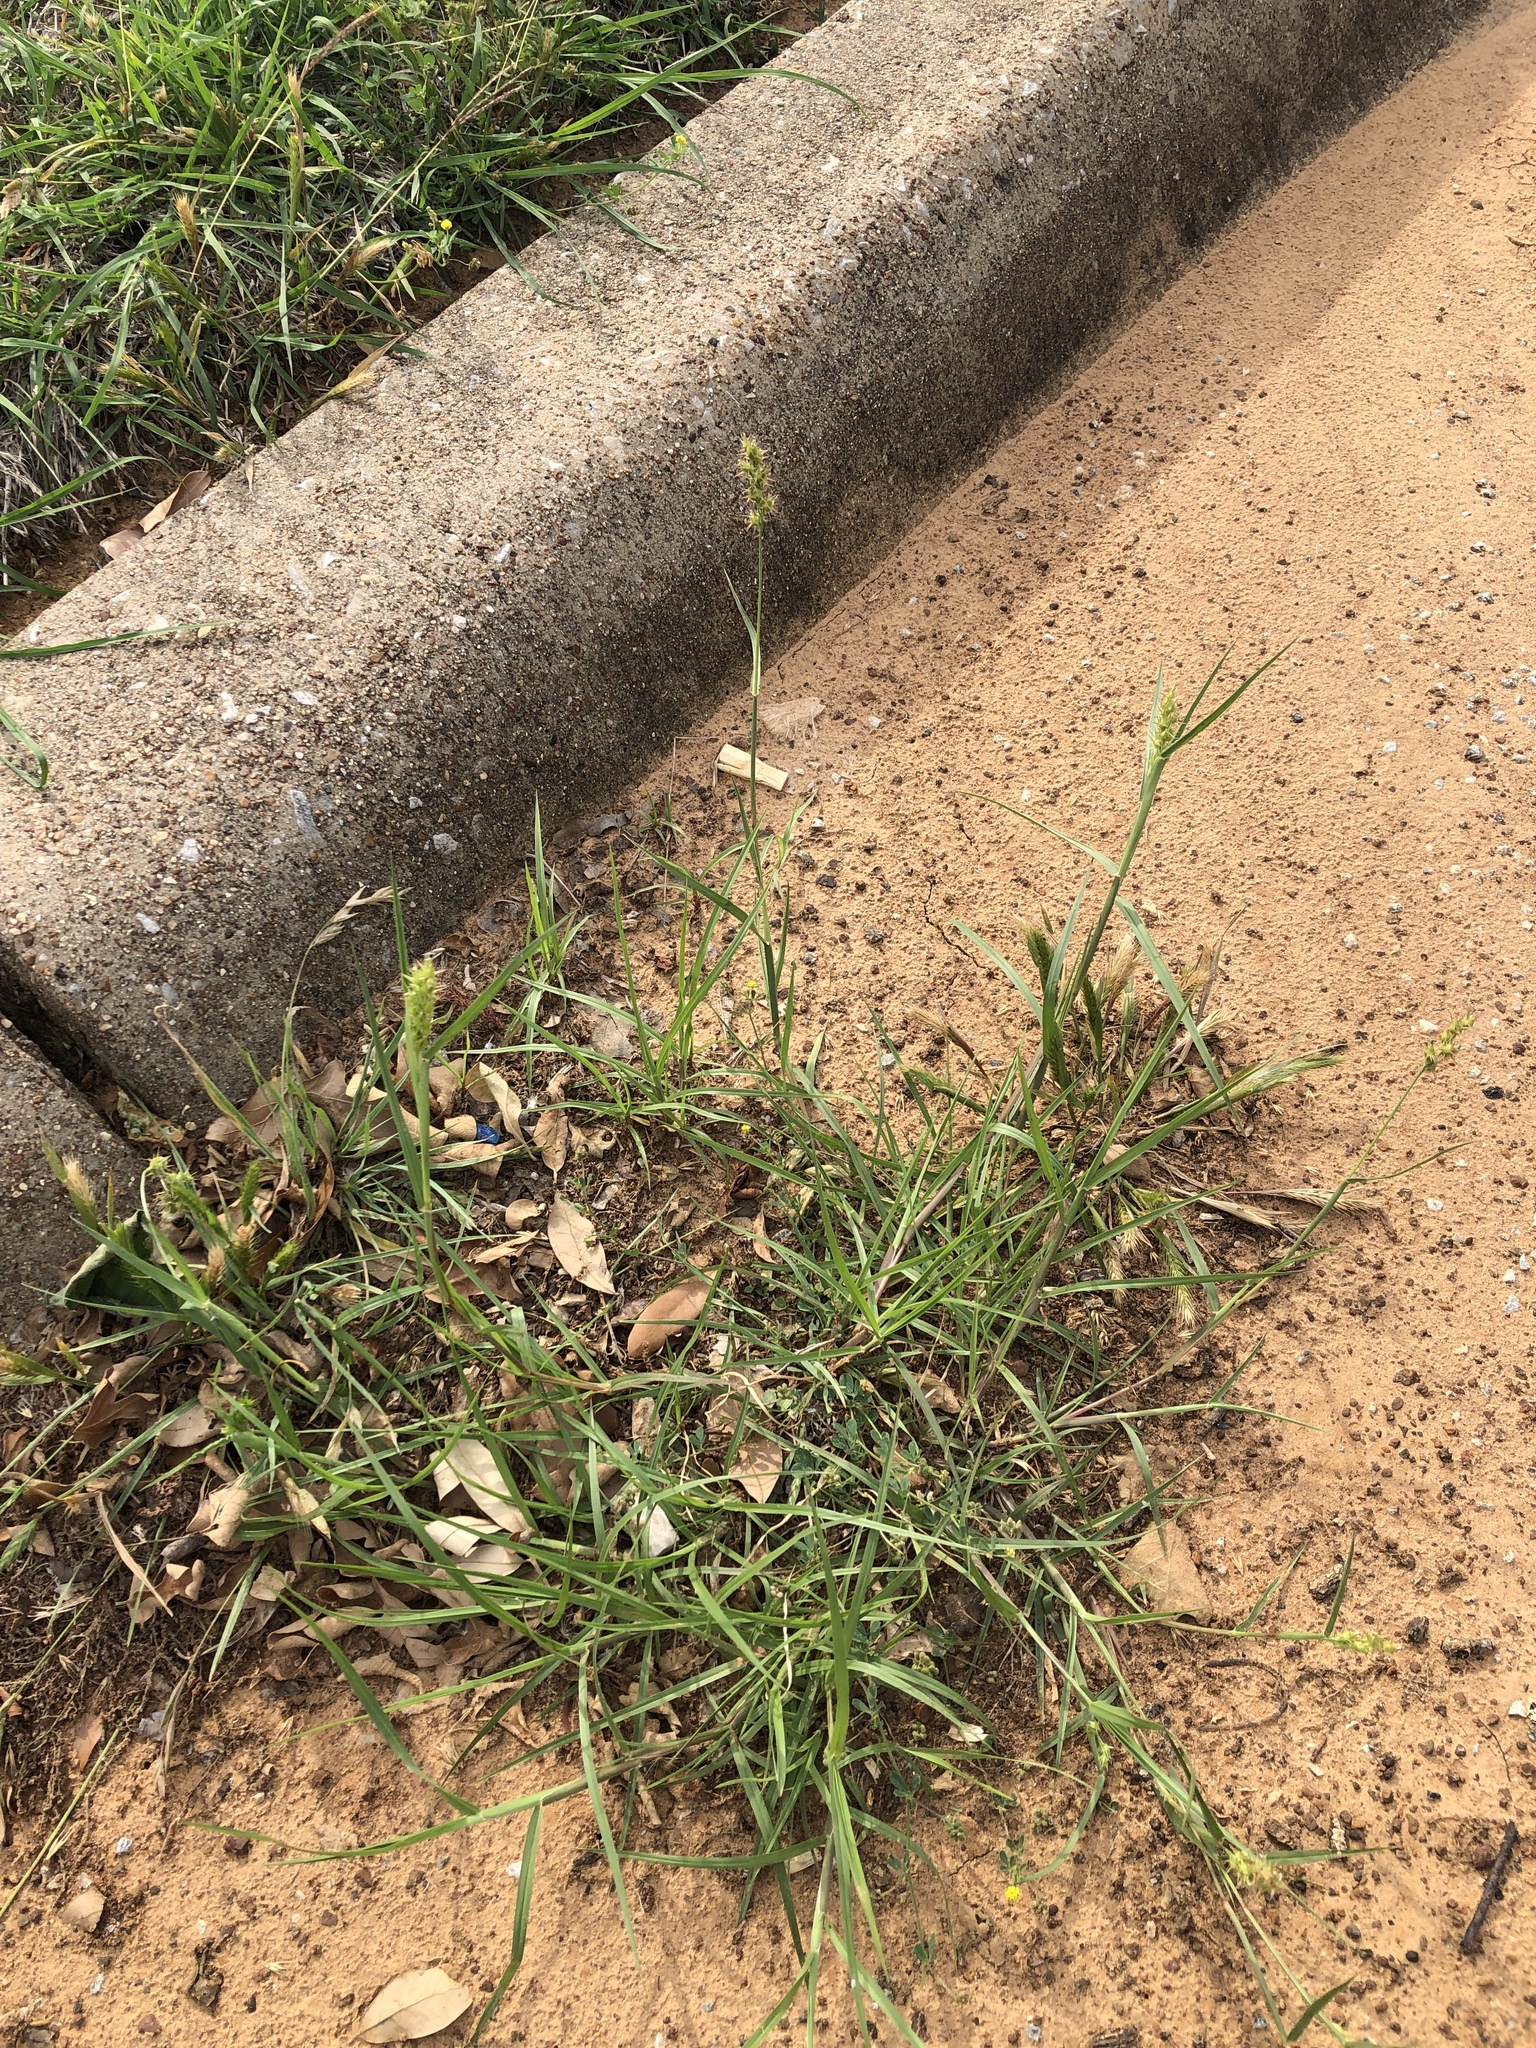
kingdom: Plantae
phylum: Tracheophyta
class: Liliopsida
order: Poales
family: Poaceae
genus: Cenchrus
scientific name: Cenchrus spinifex
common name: Coast sandbur
